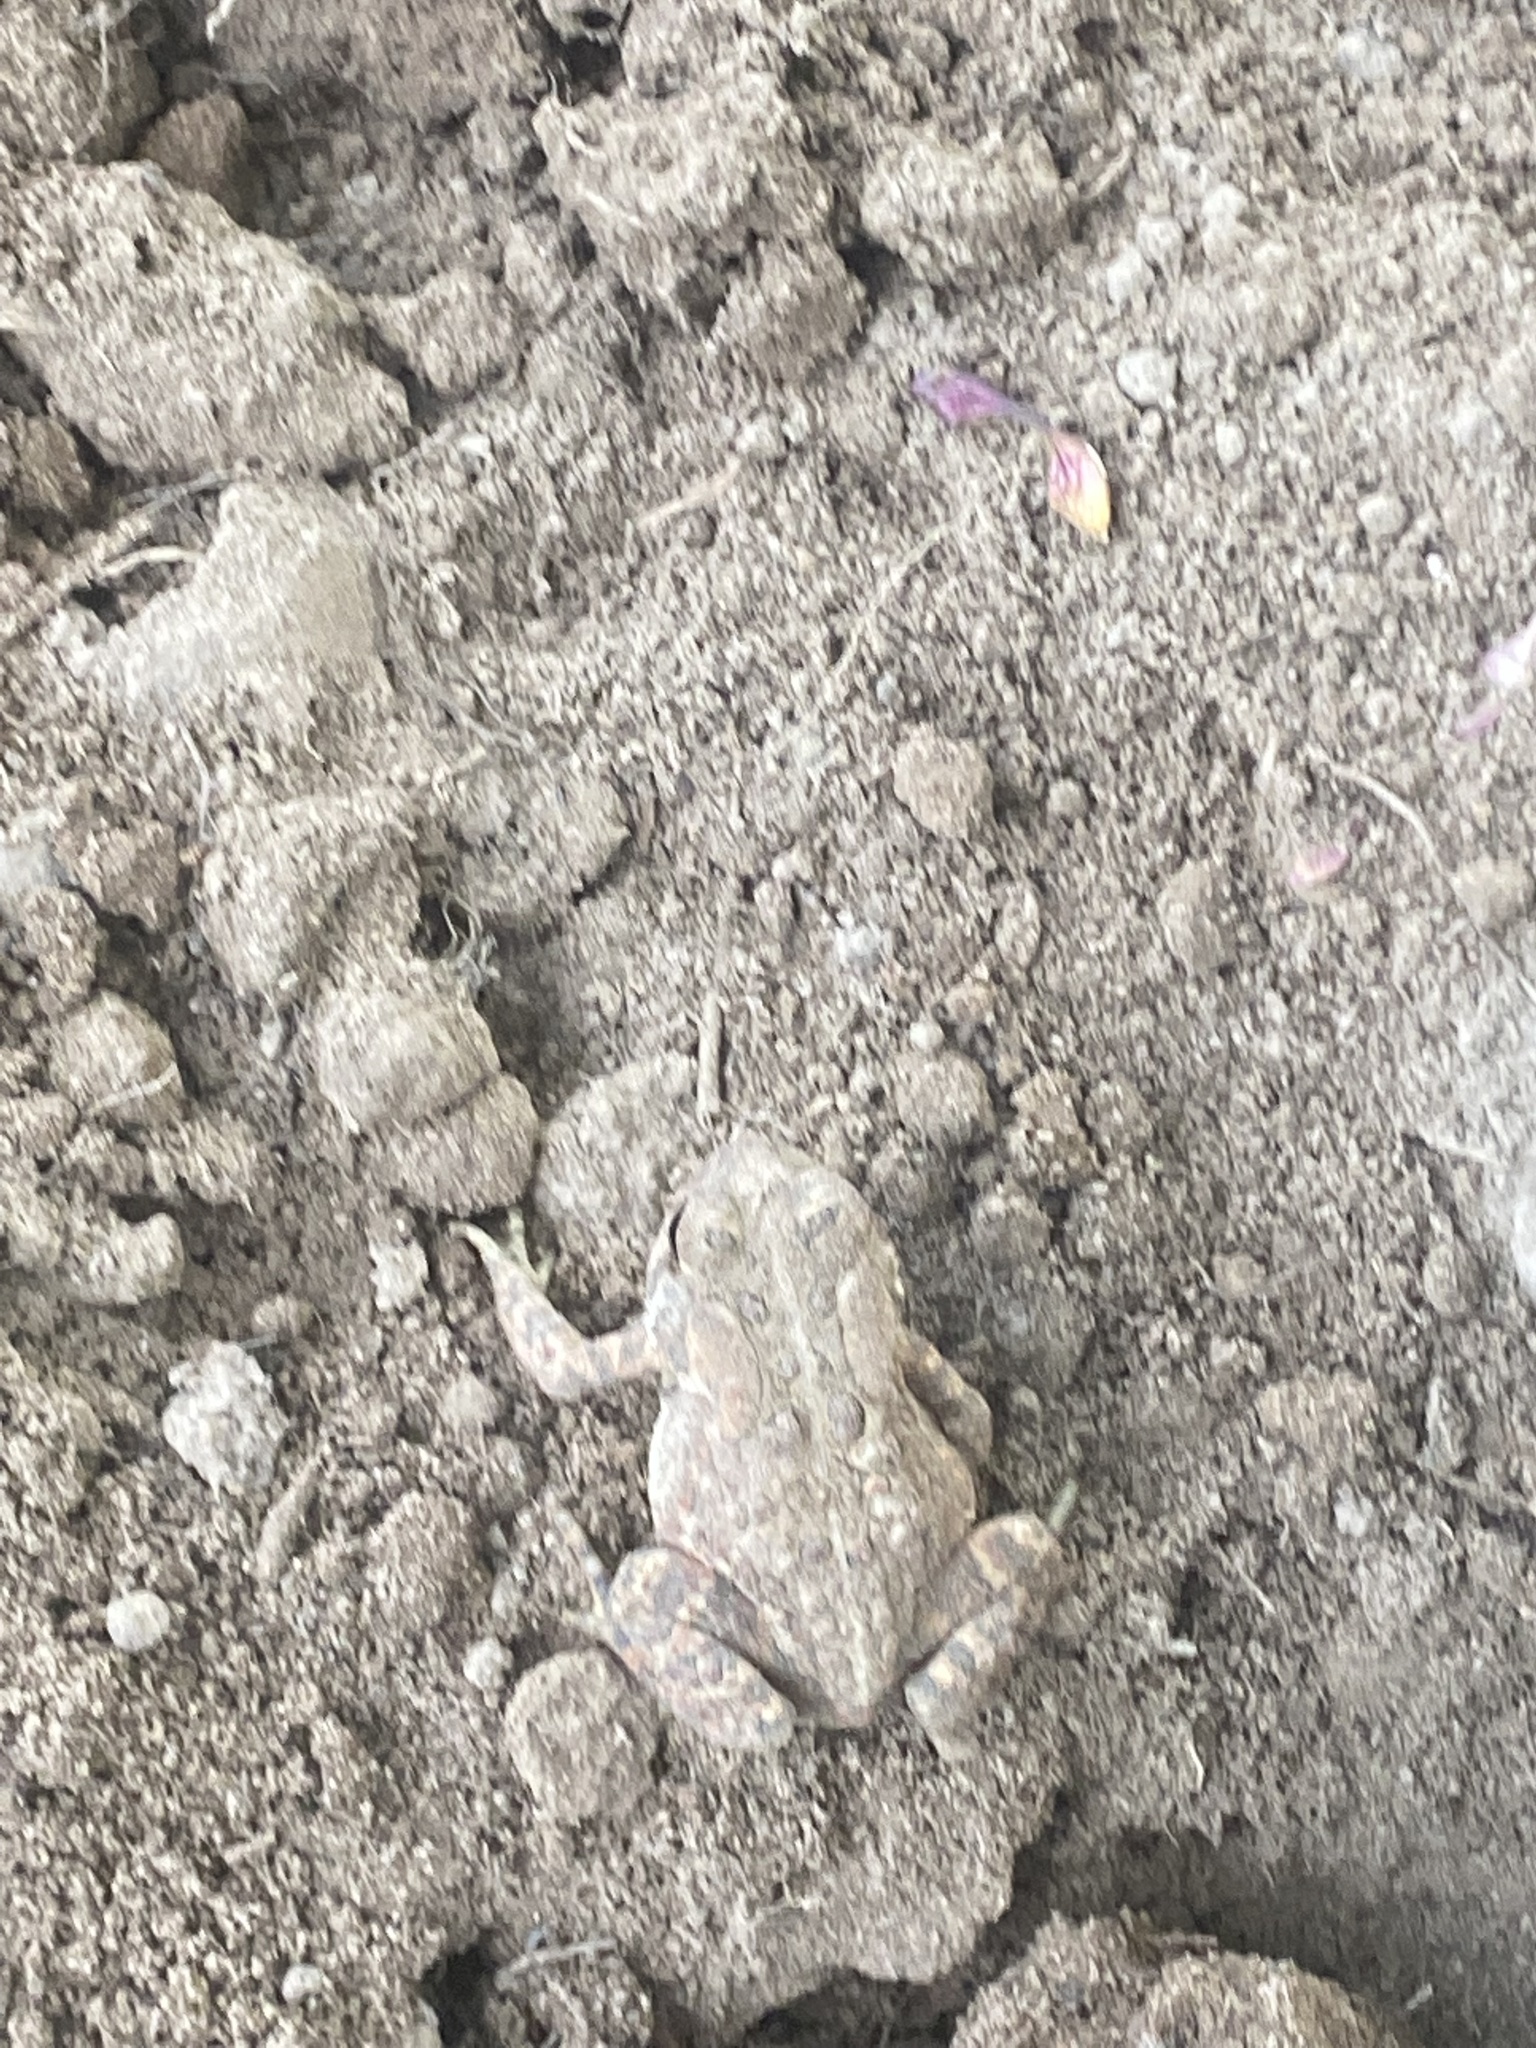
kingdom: Animalia
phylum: Chordata
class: Amphibia
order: Anura
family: Bufonidae
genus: Anaxyrus
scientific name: Anaxyrus americanus
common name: American toad
